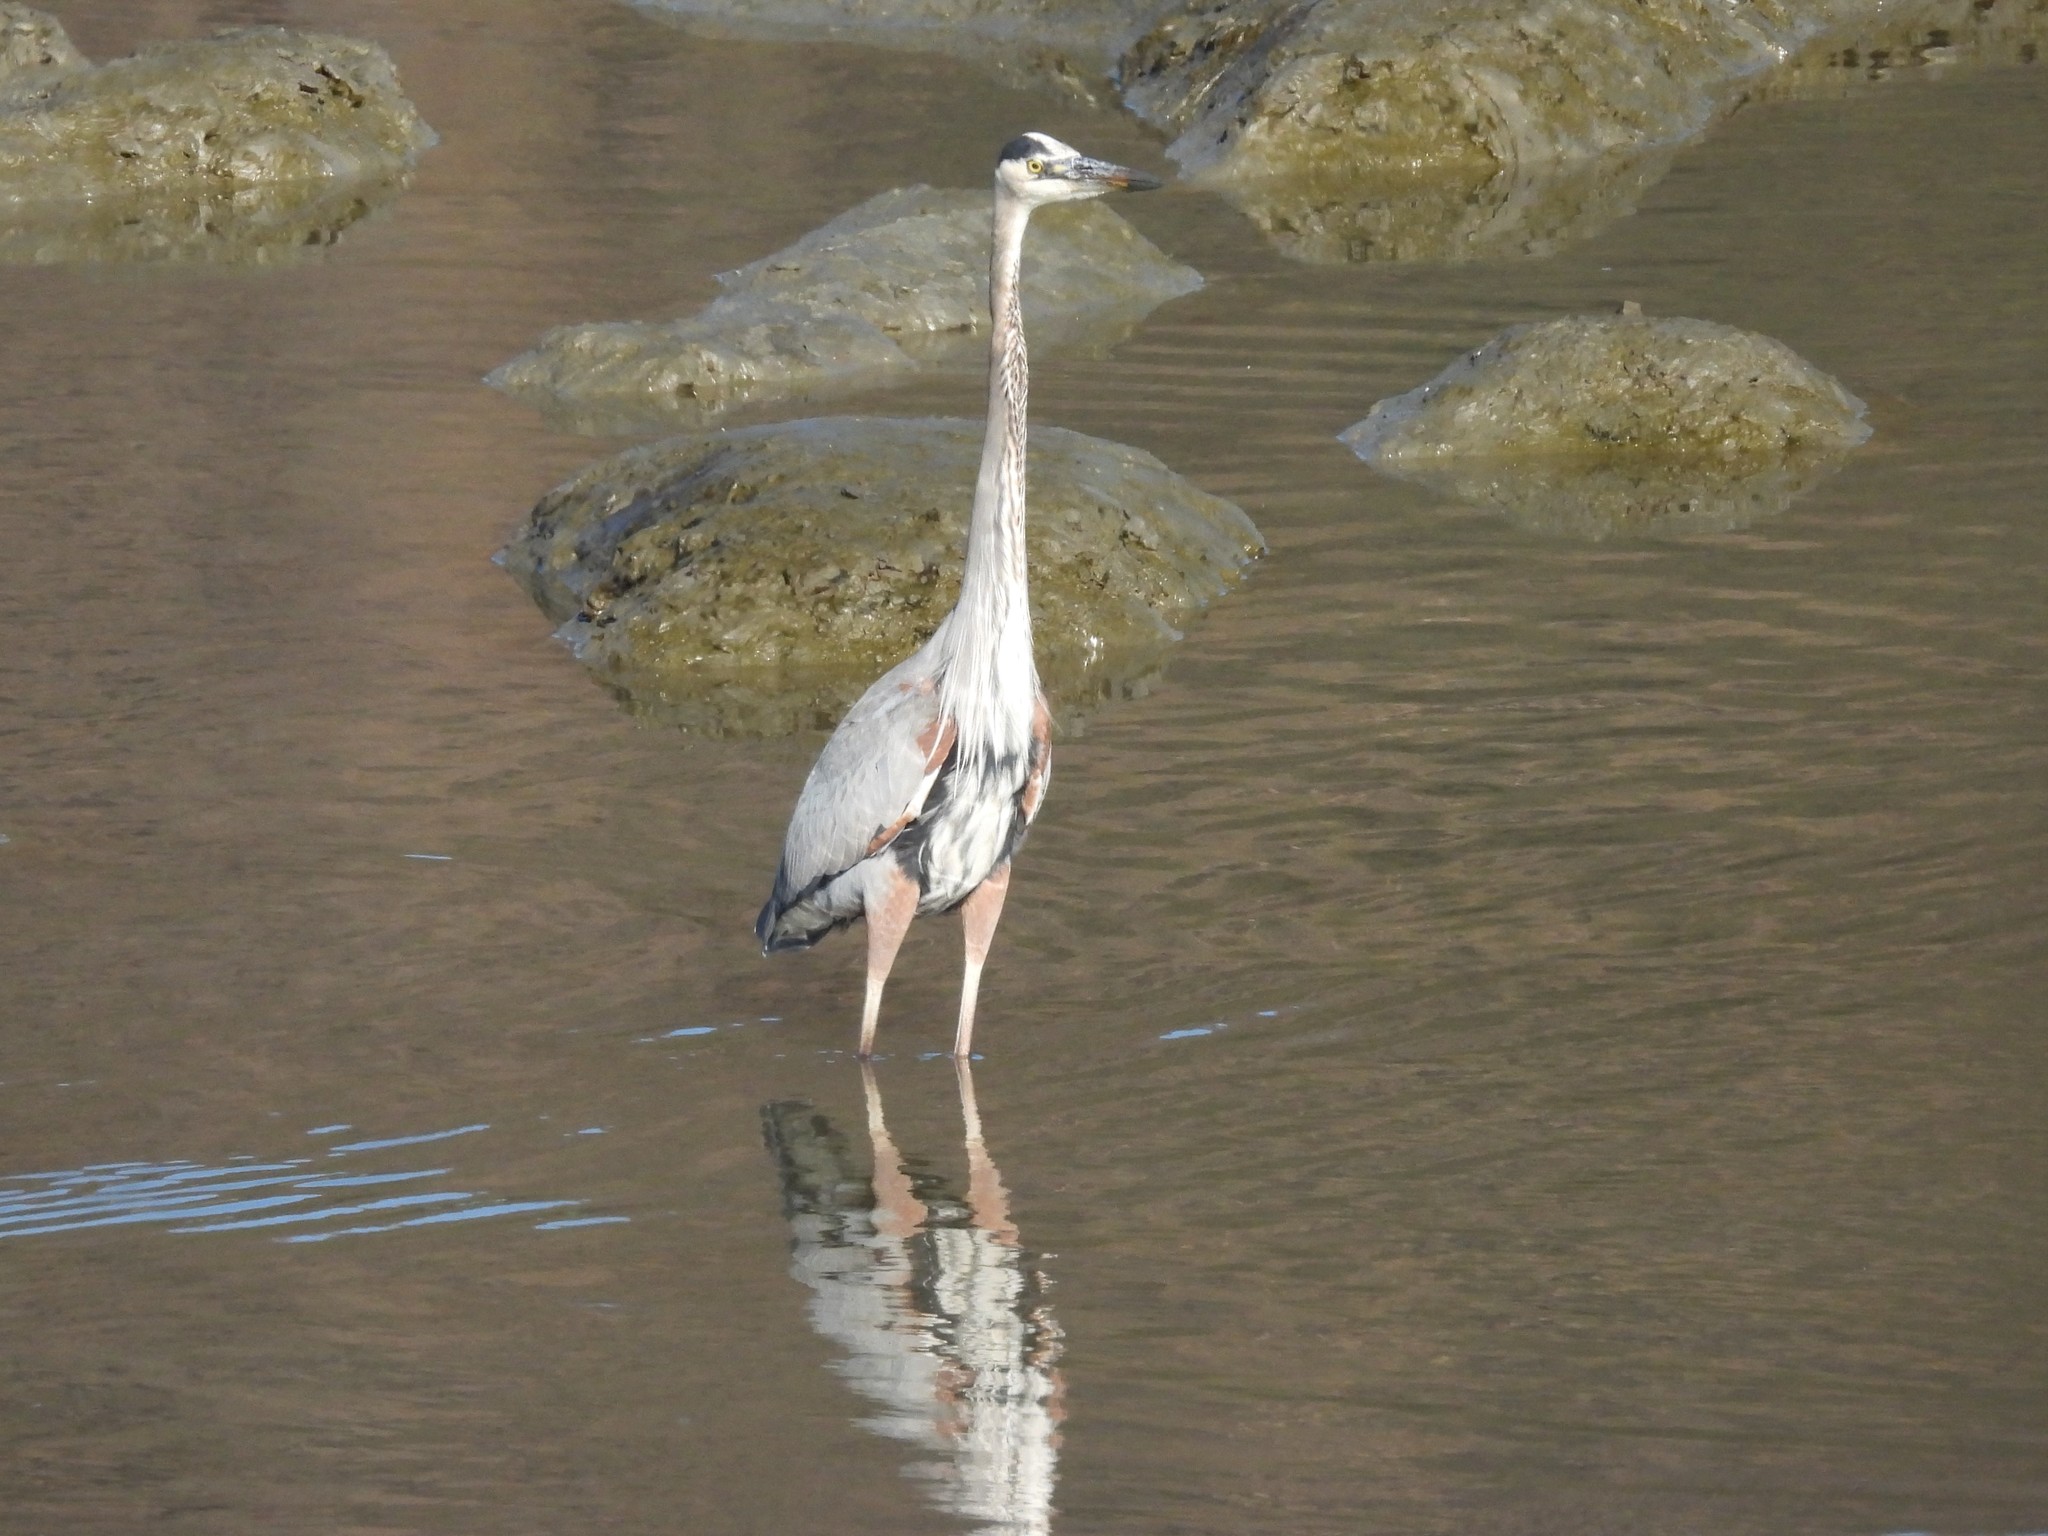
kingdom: Animalia
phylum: Chordata
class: Aves
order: Pelecaniformes
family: Ardeidae
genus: Ardea
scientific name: Ardea herodias
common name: Great blue heron
